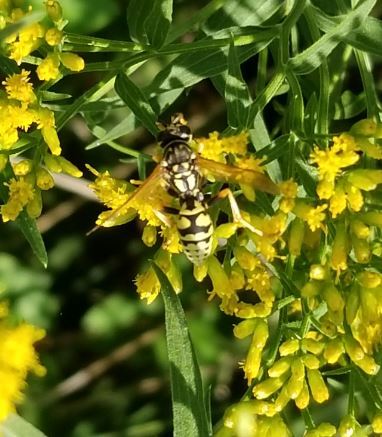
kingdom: Animalia
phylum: Arthropoda
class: Insecta
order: Hymenoptera
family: Eumenidae
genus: Polistes
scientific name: Polistes dominula
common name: Paper wasp
